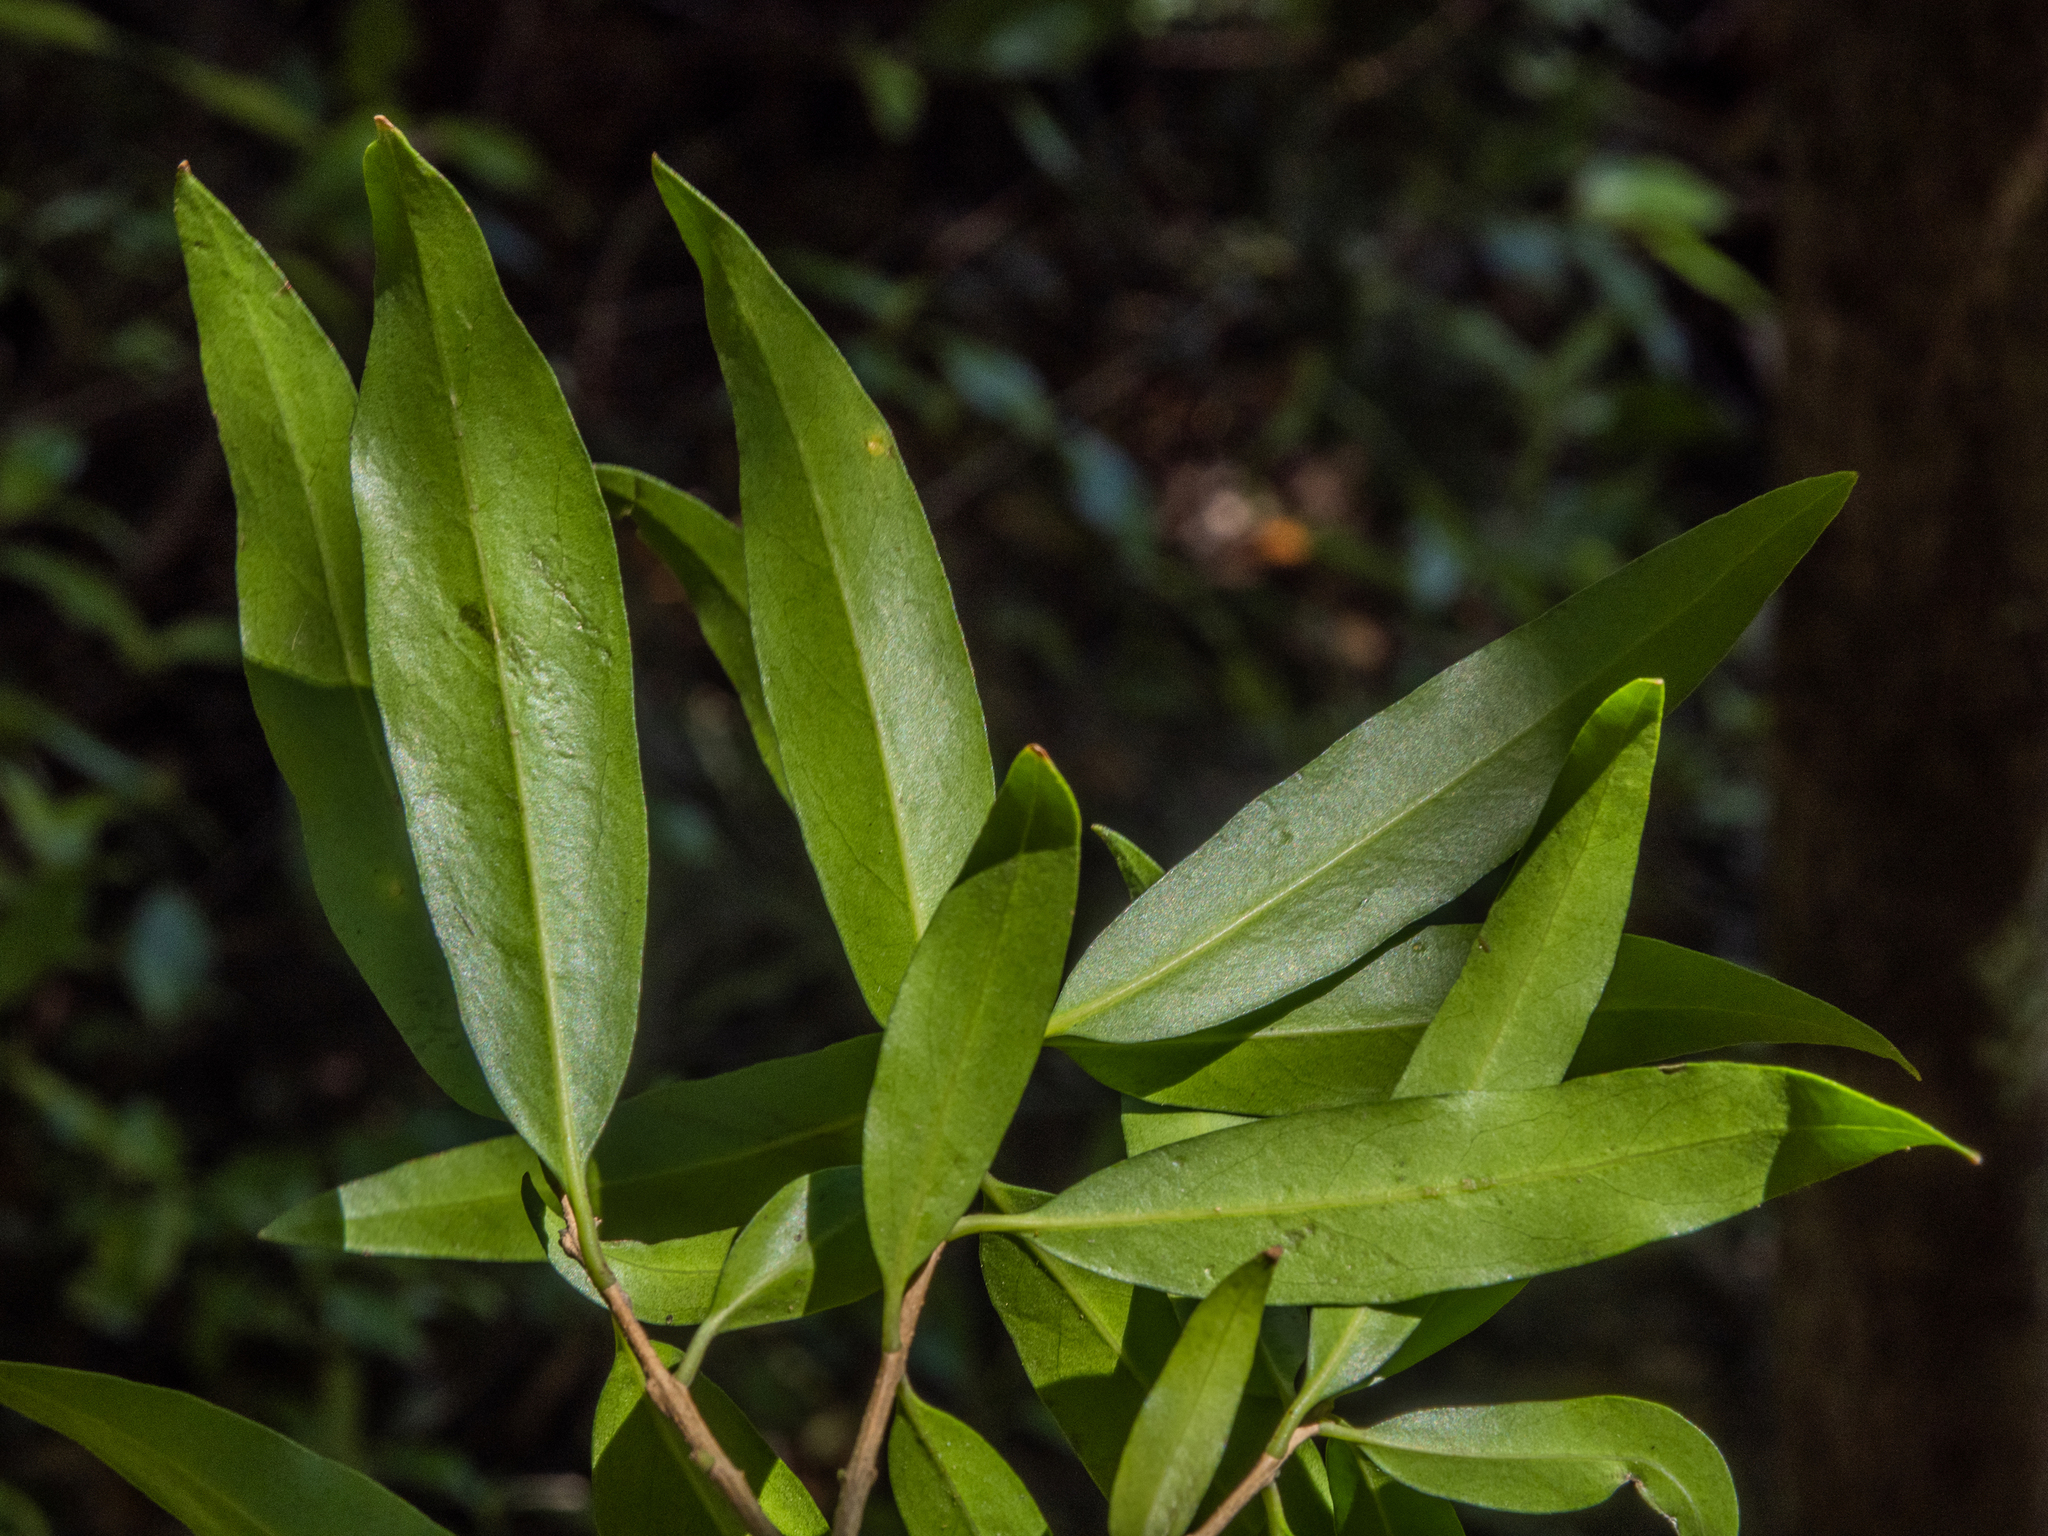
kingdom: Plantae
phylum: Tracheophyta
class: Magnoliopsida
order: Lamiales
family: Oleaceae
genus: Nestegis
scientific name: Nestegis lanceolata
